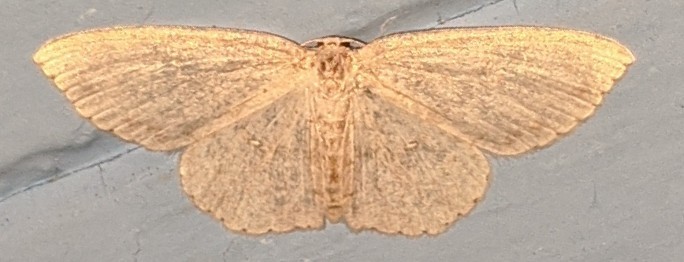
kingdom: Animalia
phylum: Arthropoda
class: Insecta
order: Lepidoptera
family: Geometridae
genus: Cyclophora
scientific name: Cyclophora pendulinaria
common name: Sweet fern geometer
